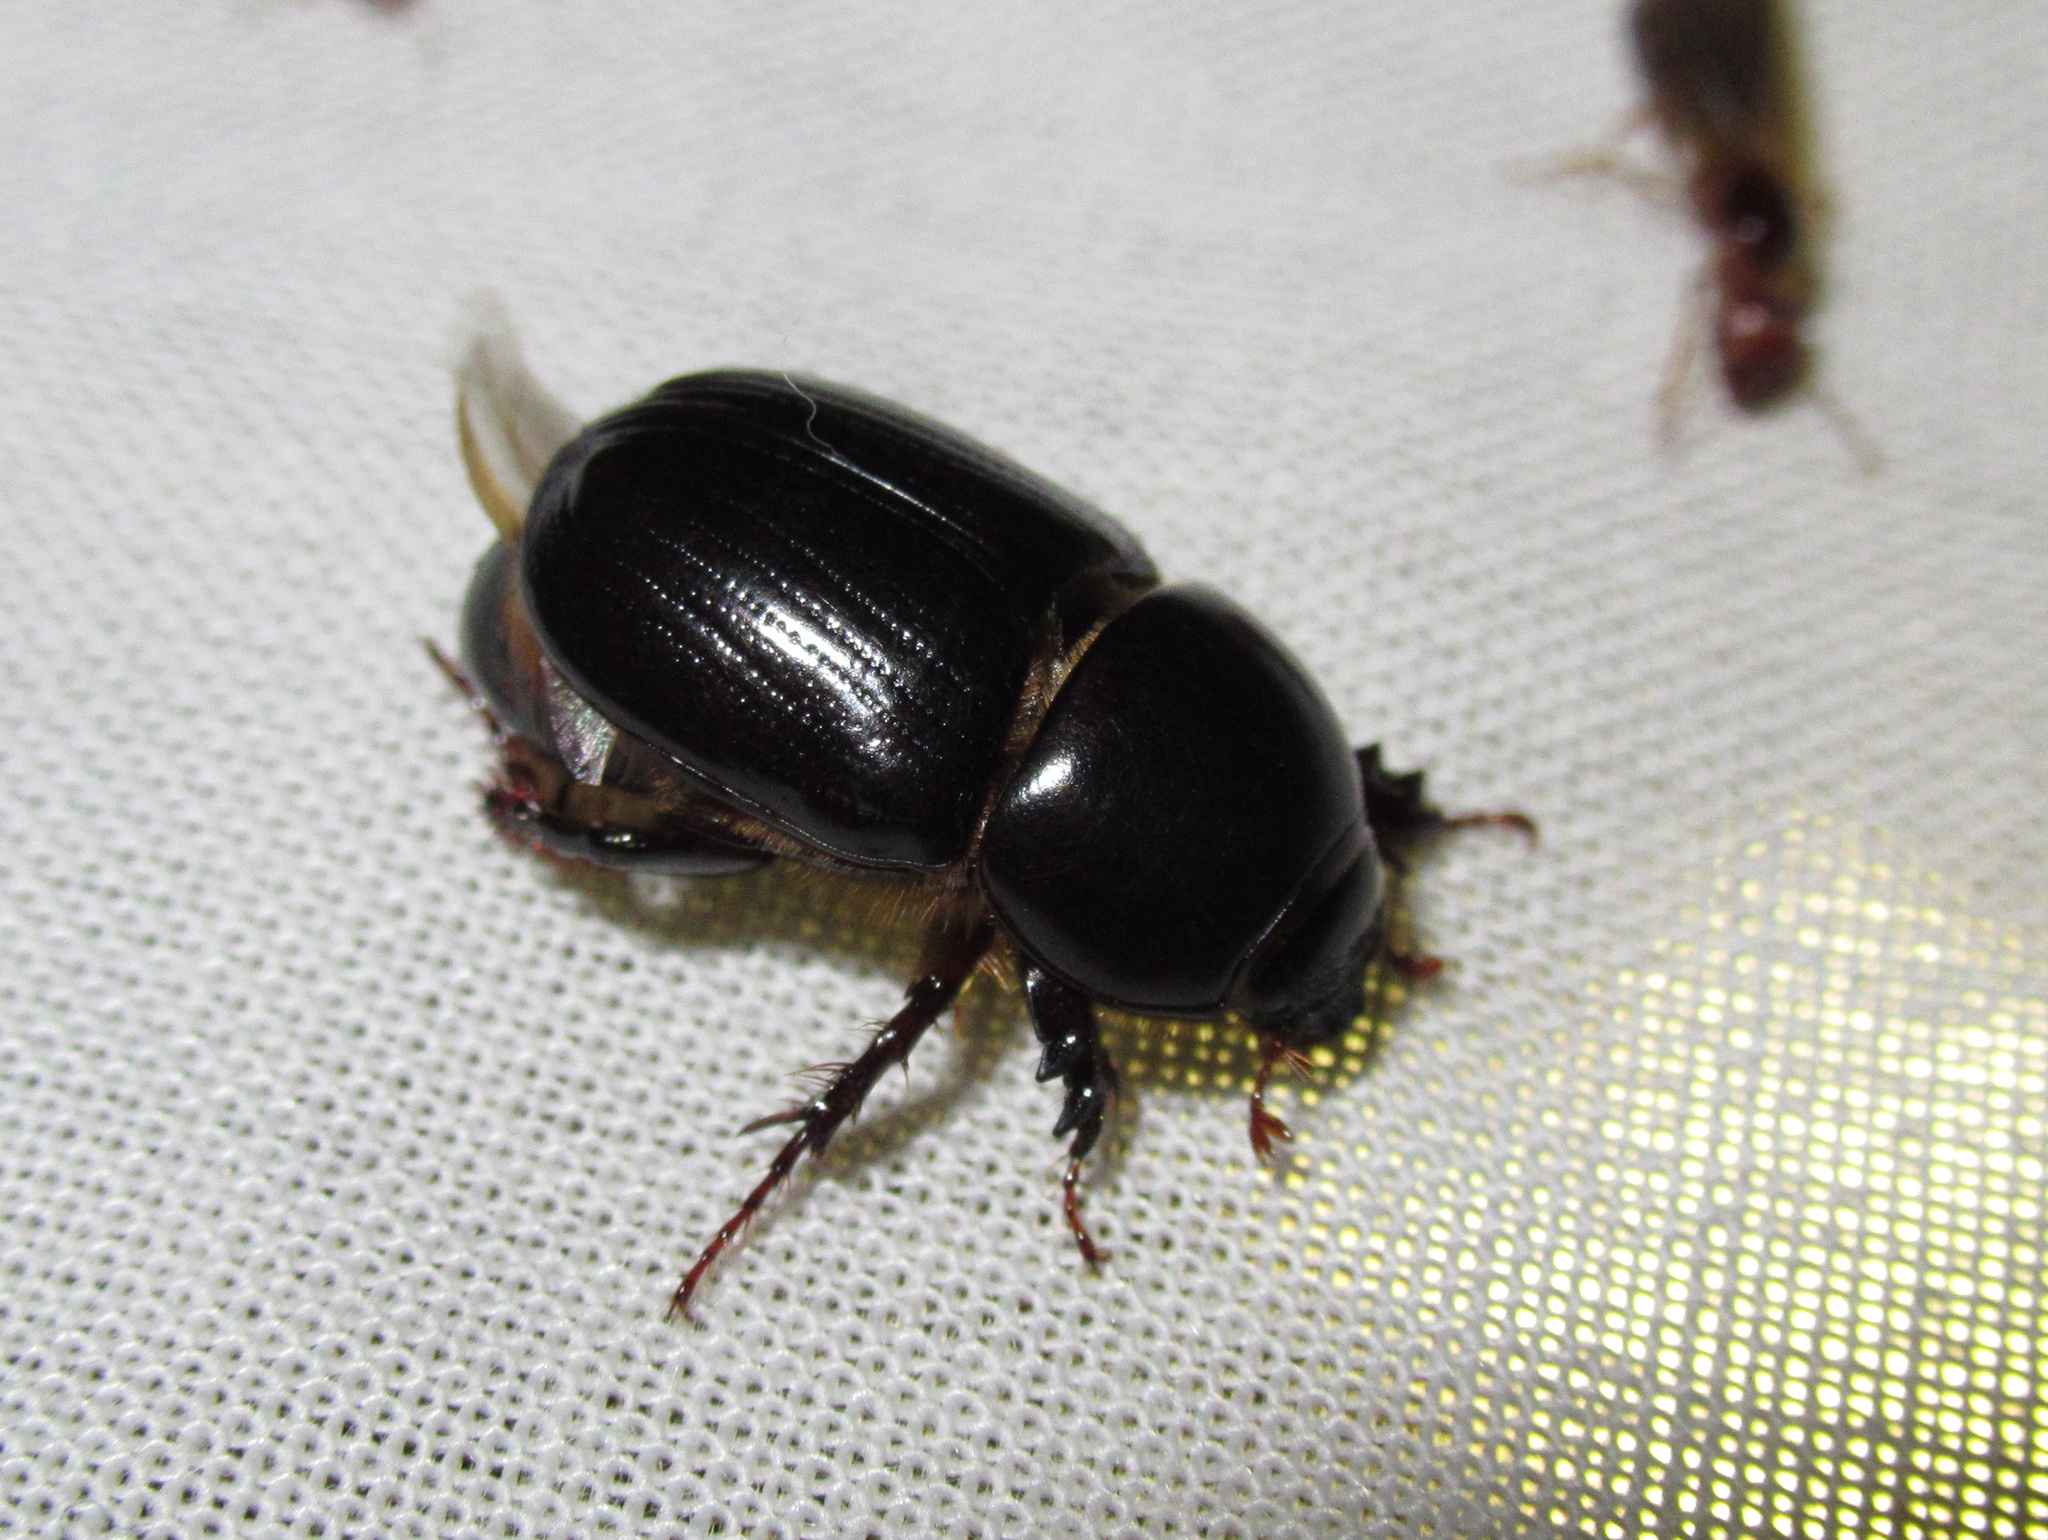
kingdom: Animalia
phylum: Arthropoda
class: Insecta
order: Coleoptera
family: Scarabaeidae
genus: Heteronychus
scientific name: Heteronychus arator
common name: African black beetle
